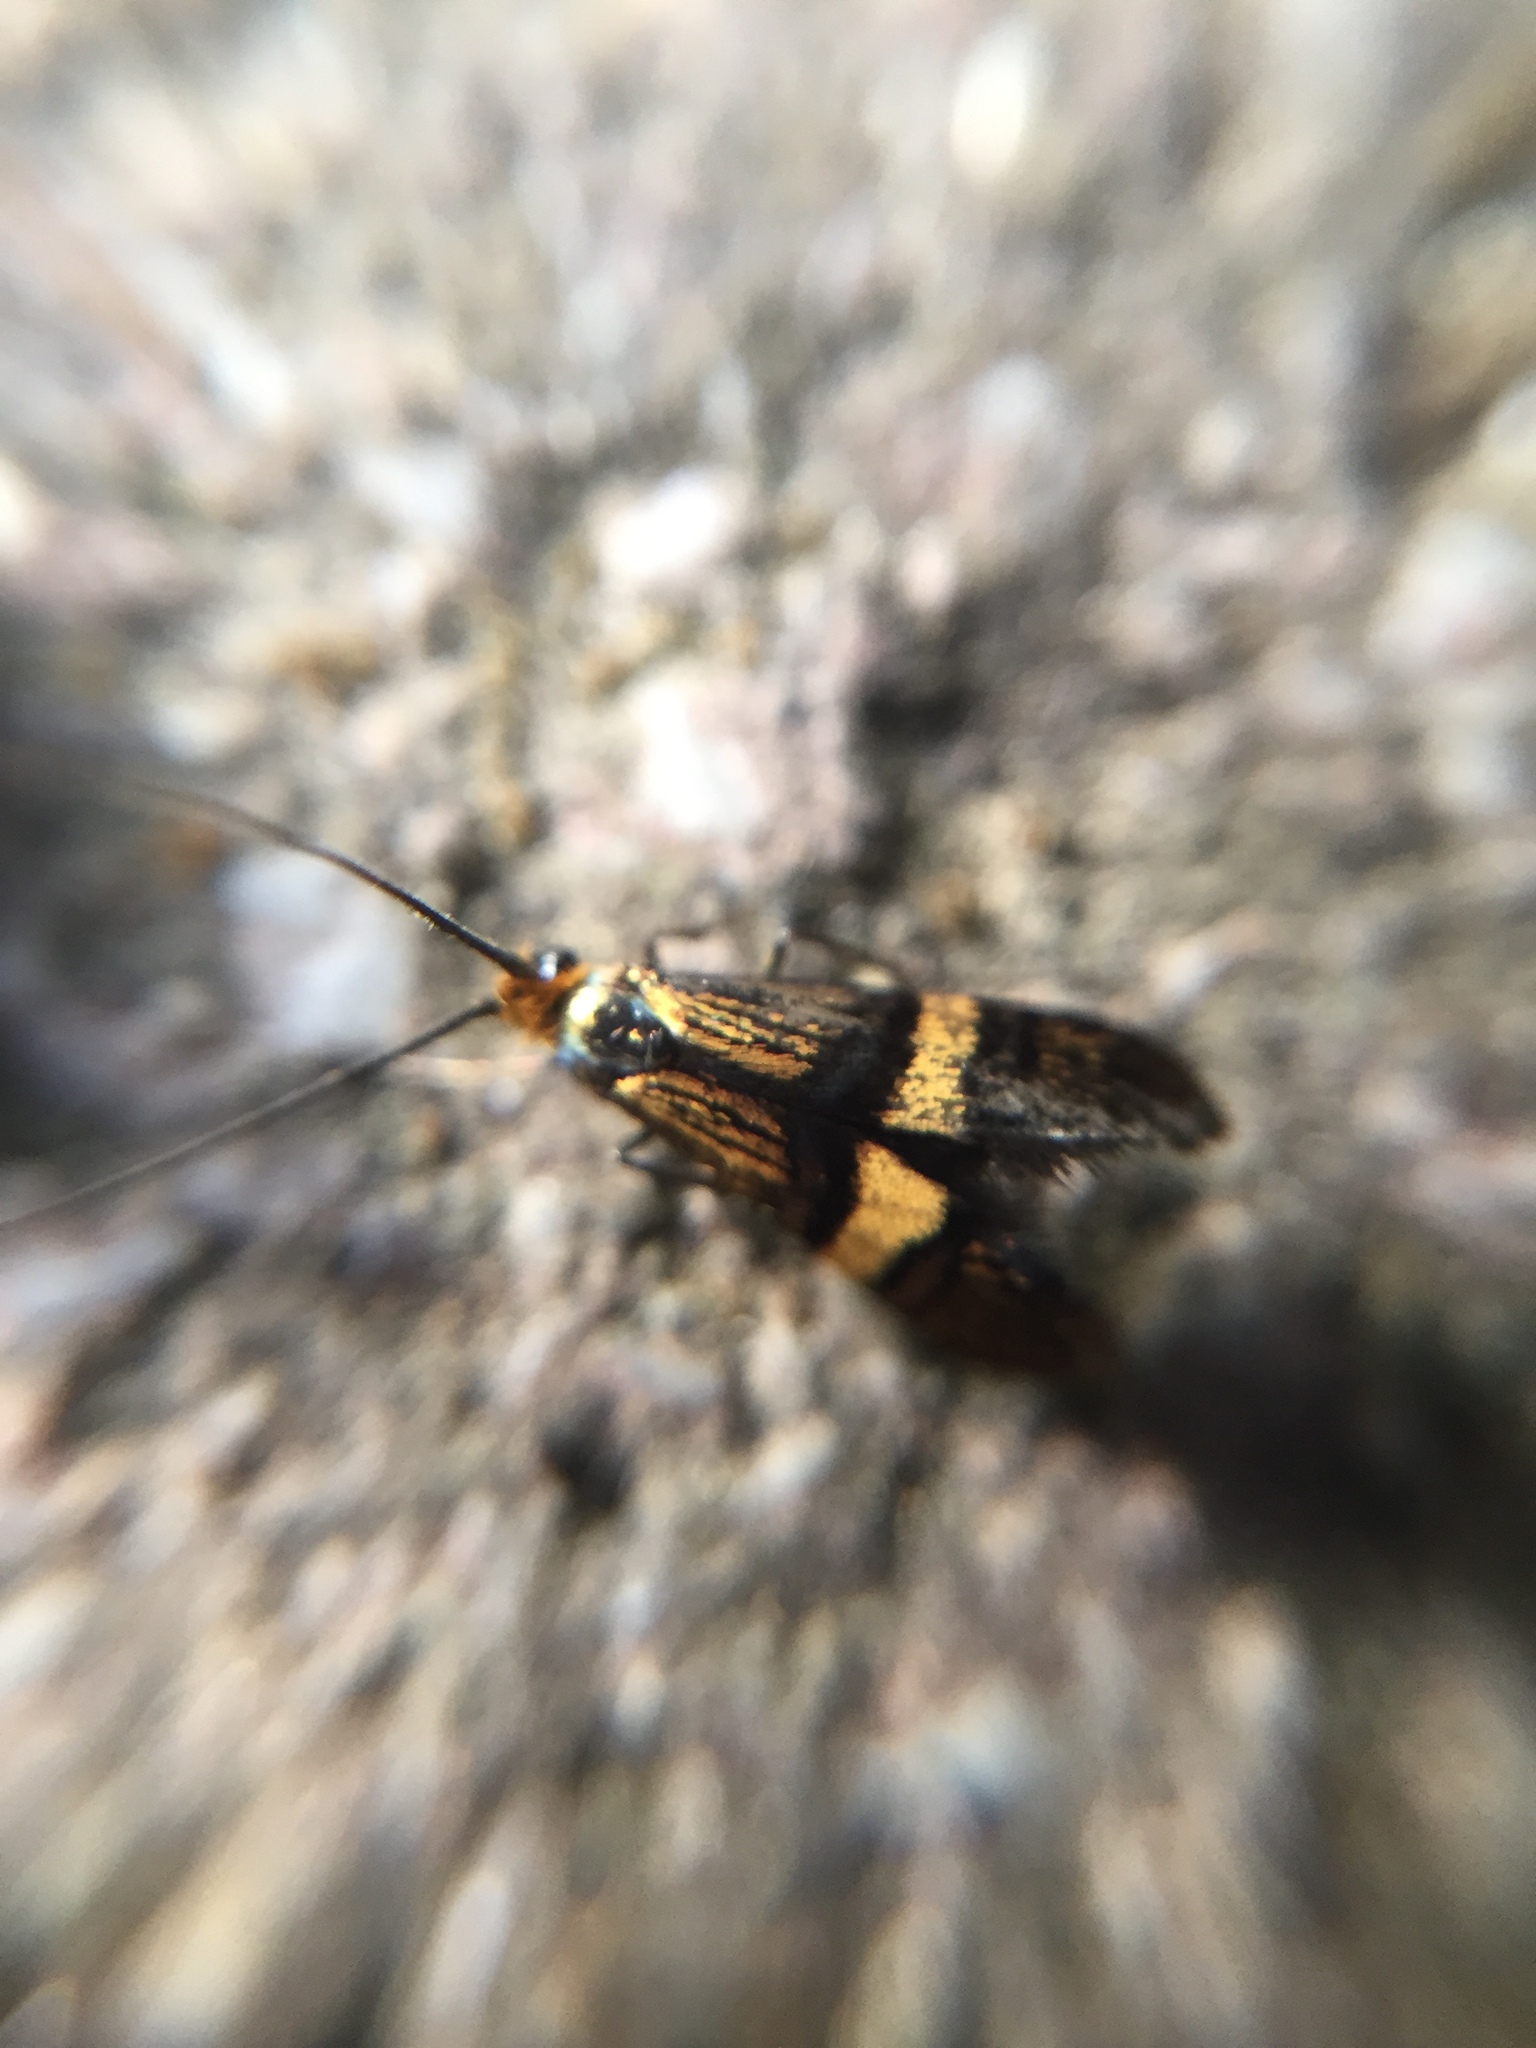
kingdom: Animalia
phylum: Arthropoda
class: Insecta
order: Lepidoptera
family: Adelidae
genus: Adela
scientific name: Adela croesella
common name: Small barred long-horn
